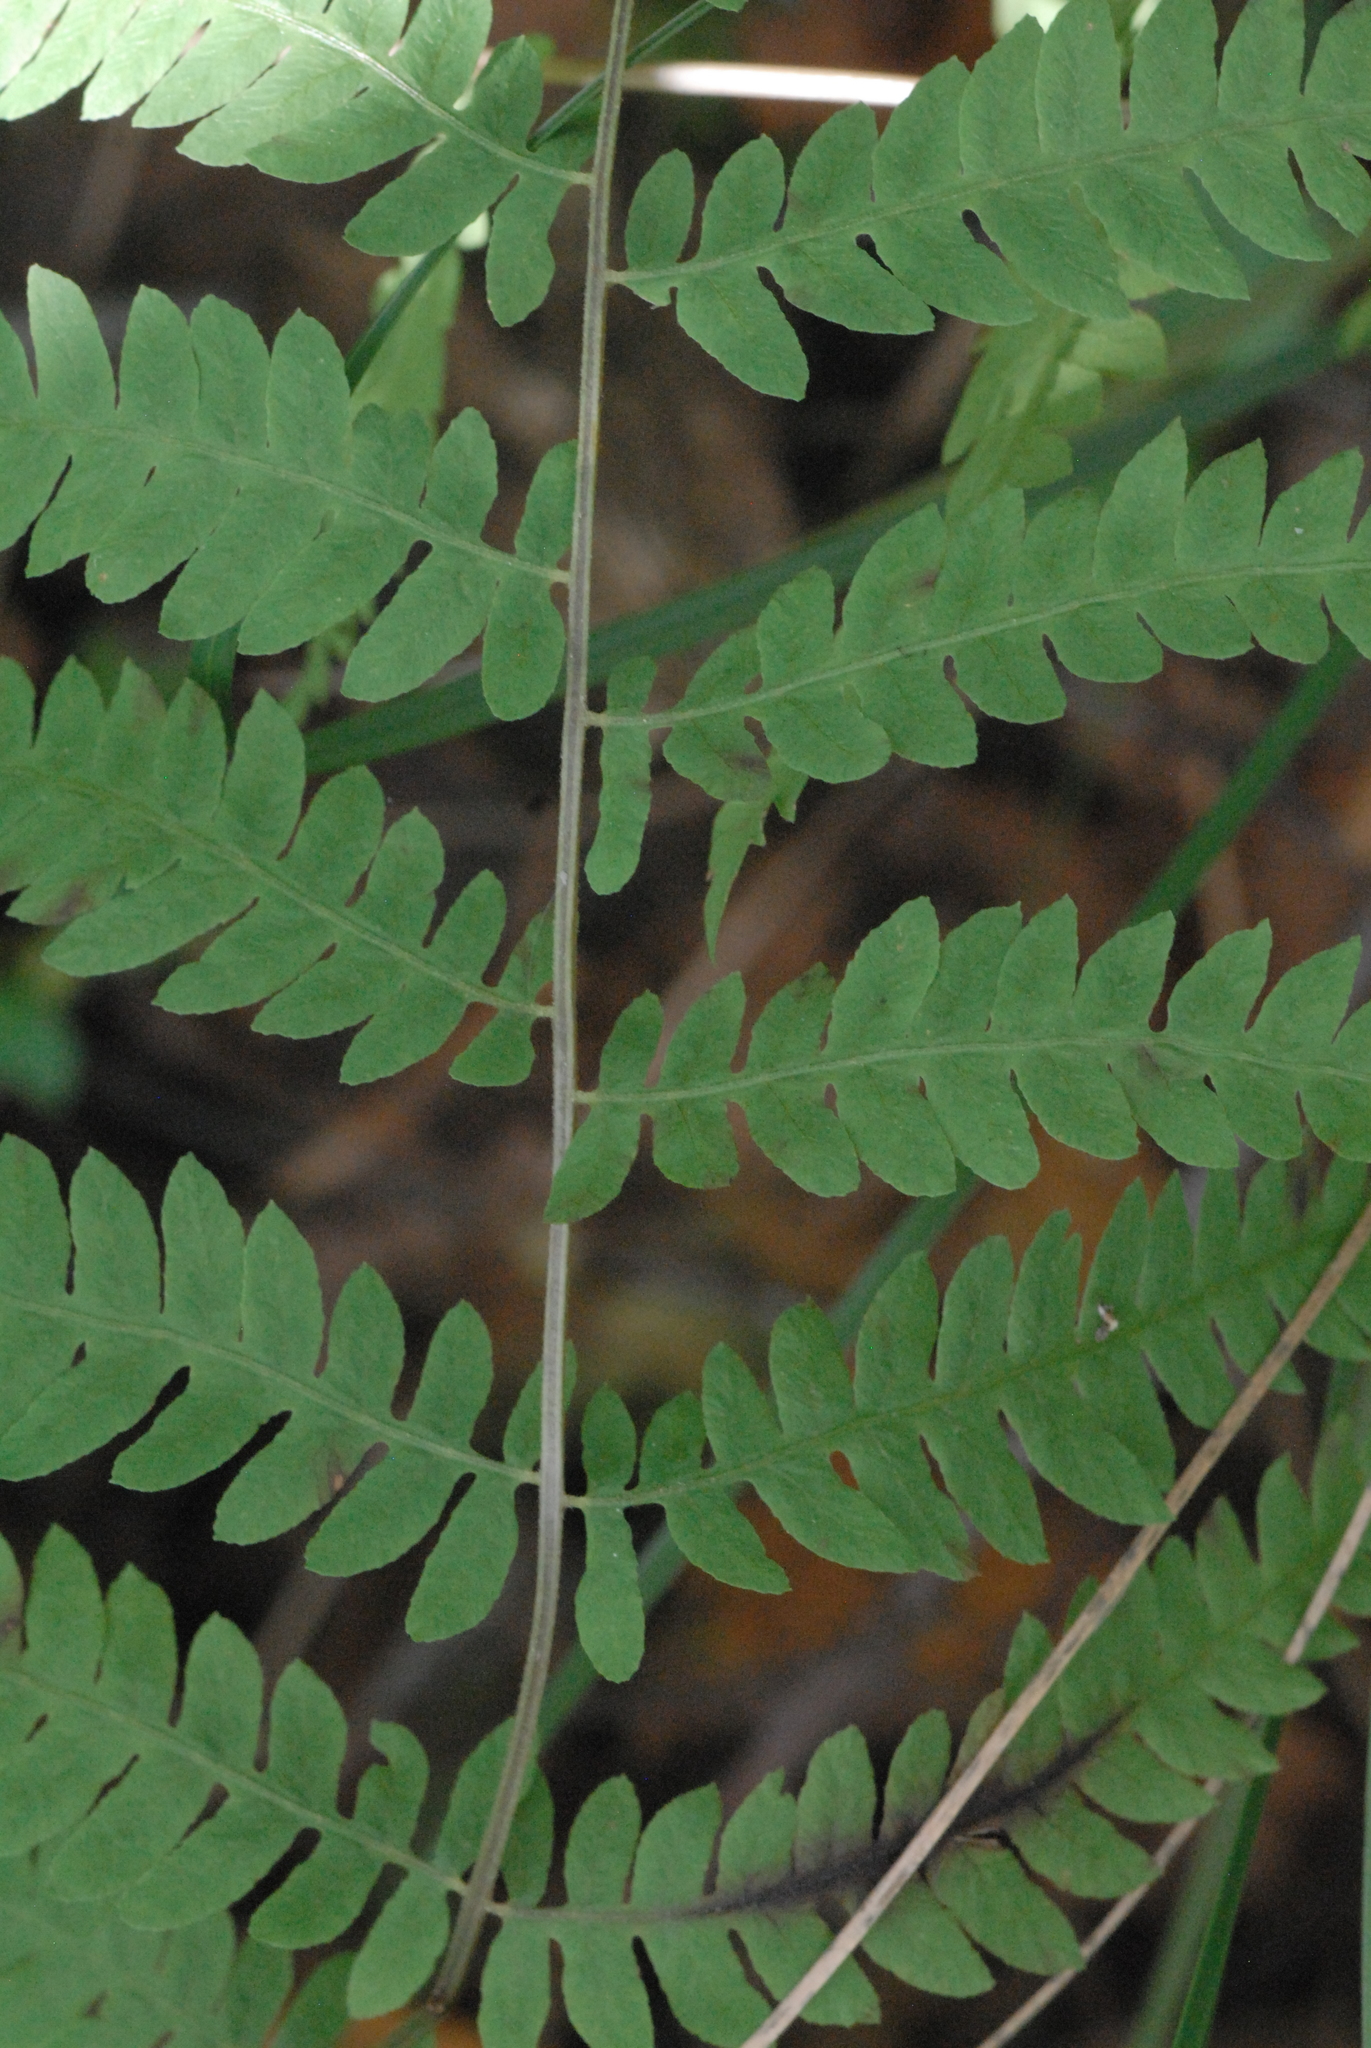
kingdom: Plantae
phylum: Tracheophyta
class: Polypodiopsida
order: Polypodiales
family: Thelypteridaceae
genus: Thelypteris
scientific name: Thelypteris palustris
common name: Marsh fern
